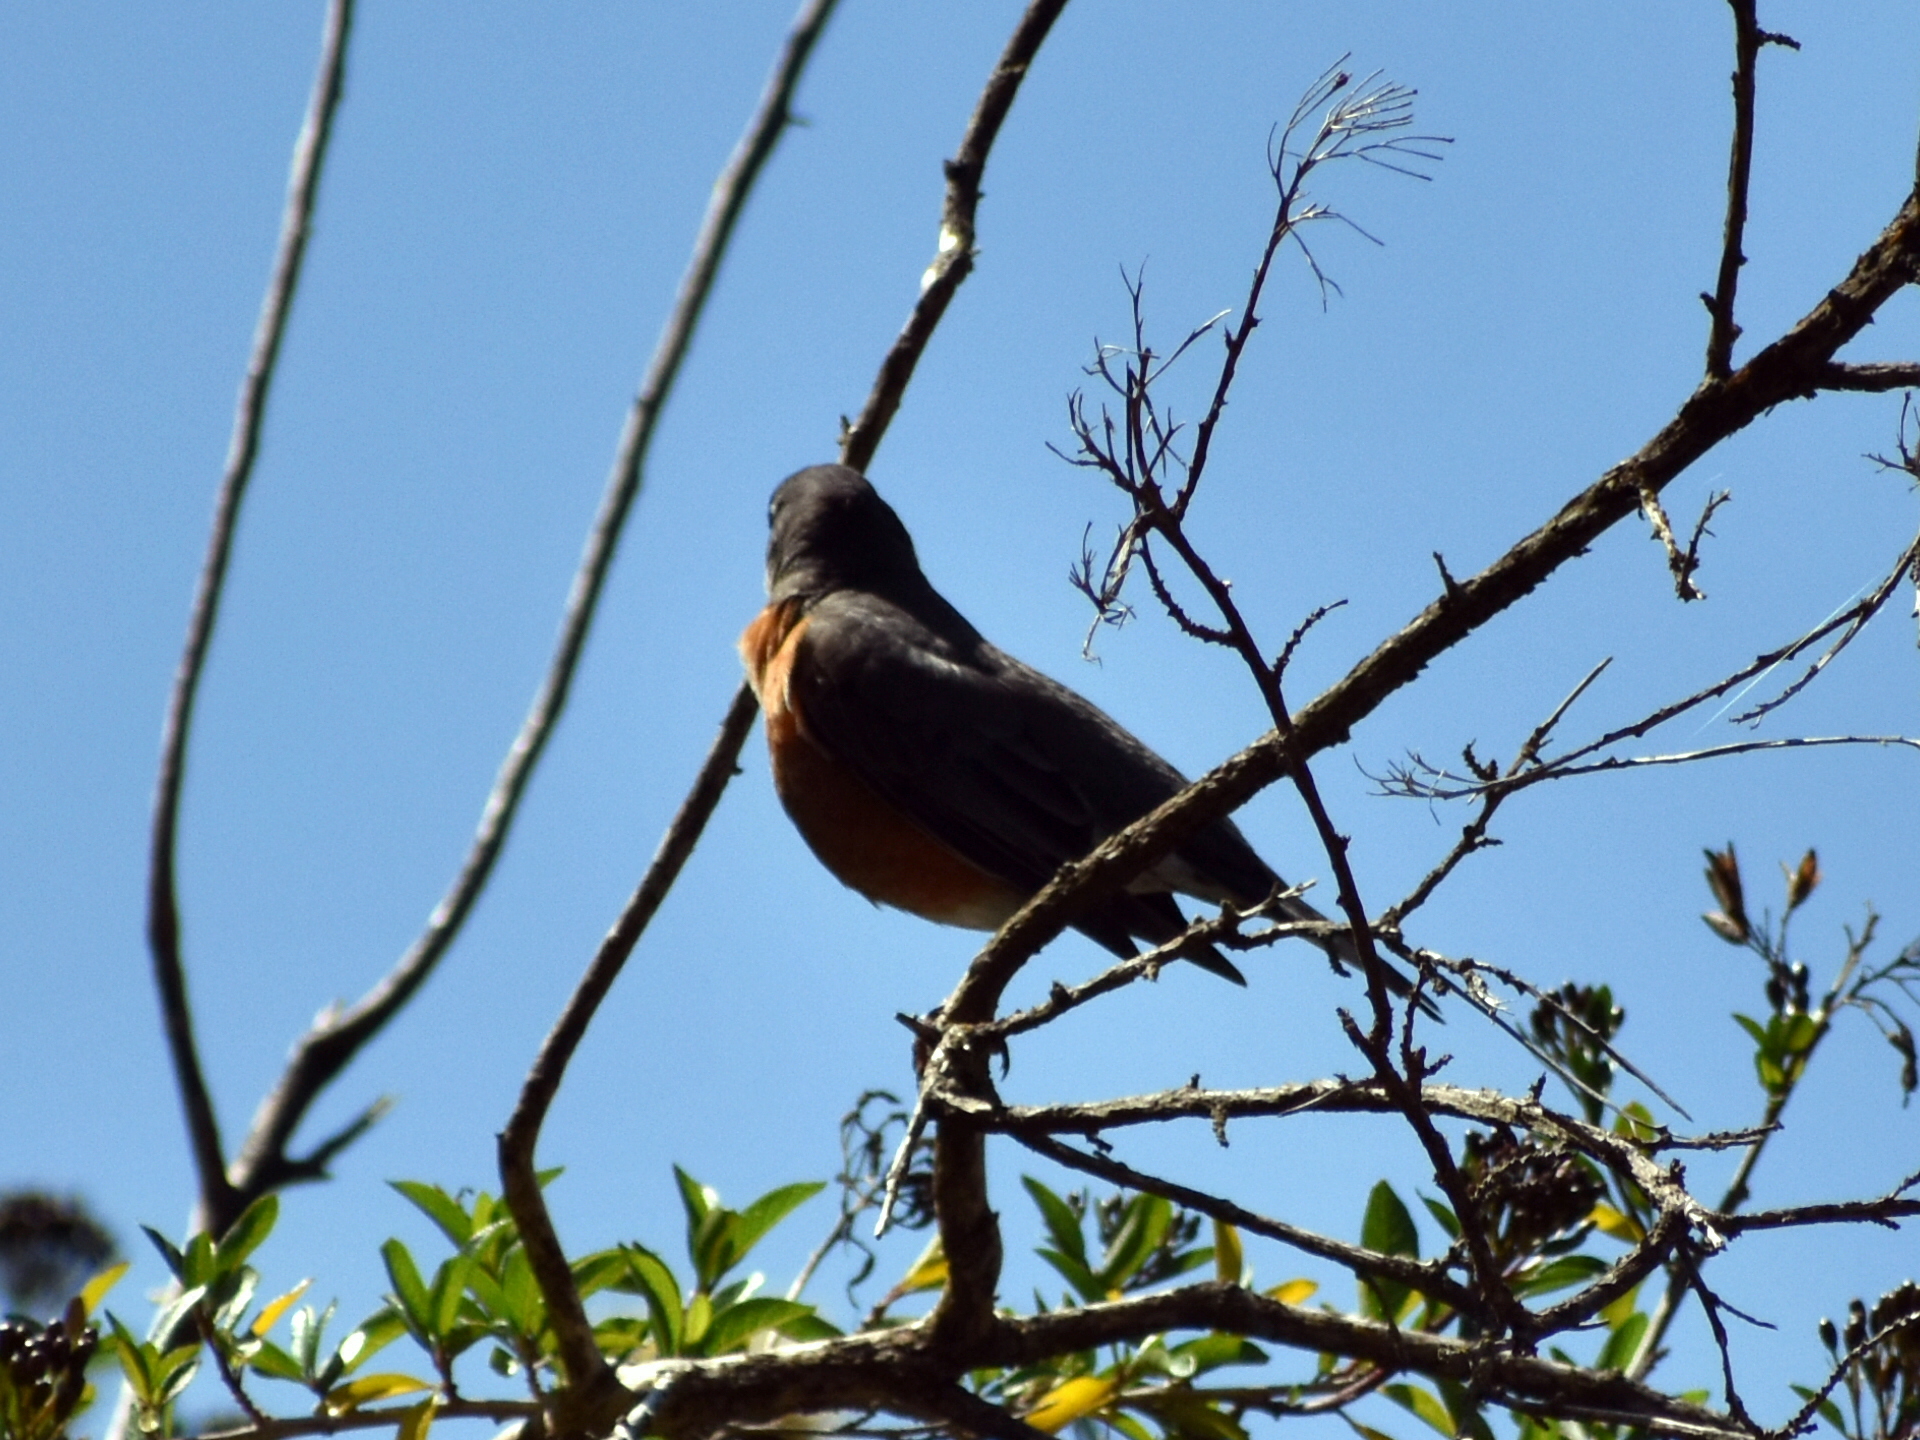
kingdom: Animalia
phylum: Chordata
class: Aves
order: Passeriformes
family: Turdidae
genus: Turdus
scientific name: Turdus migratorius
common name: American robin
